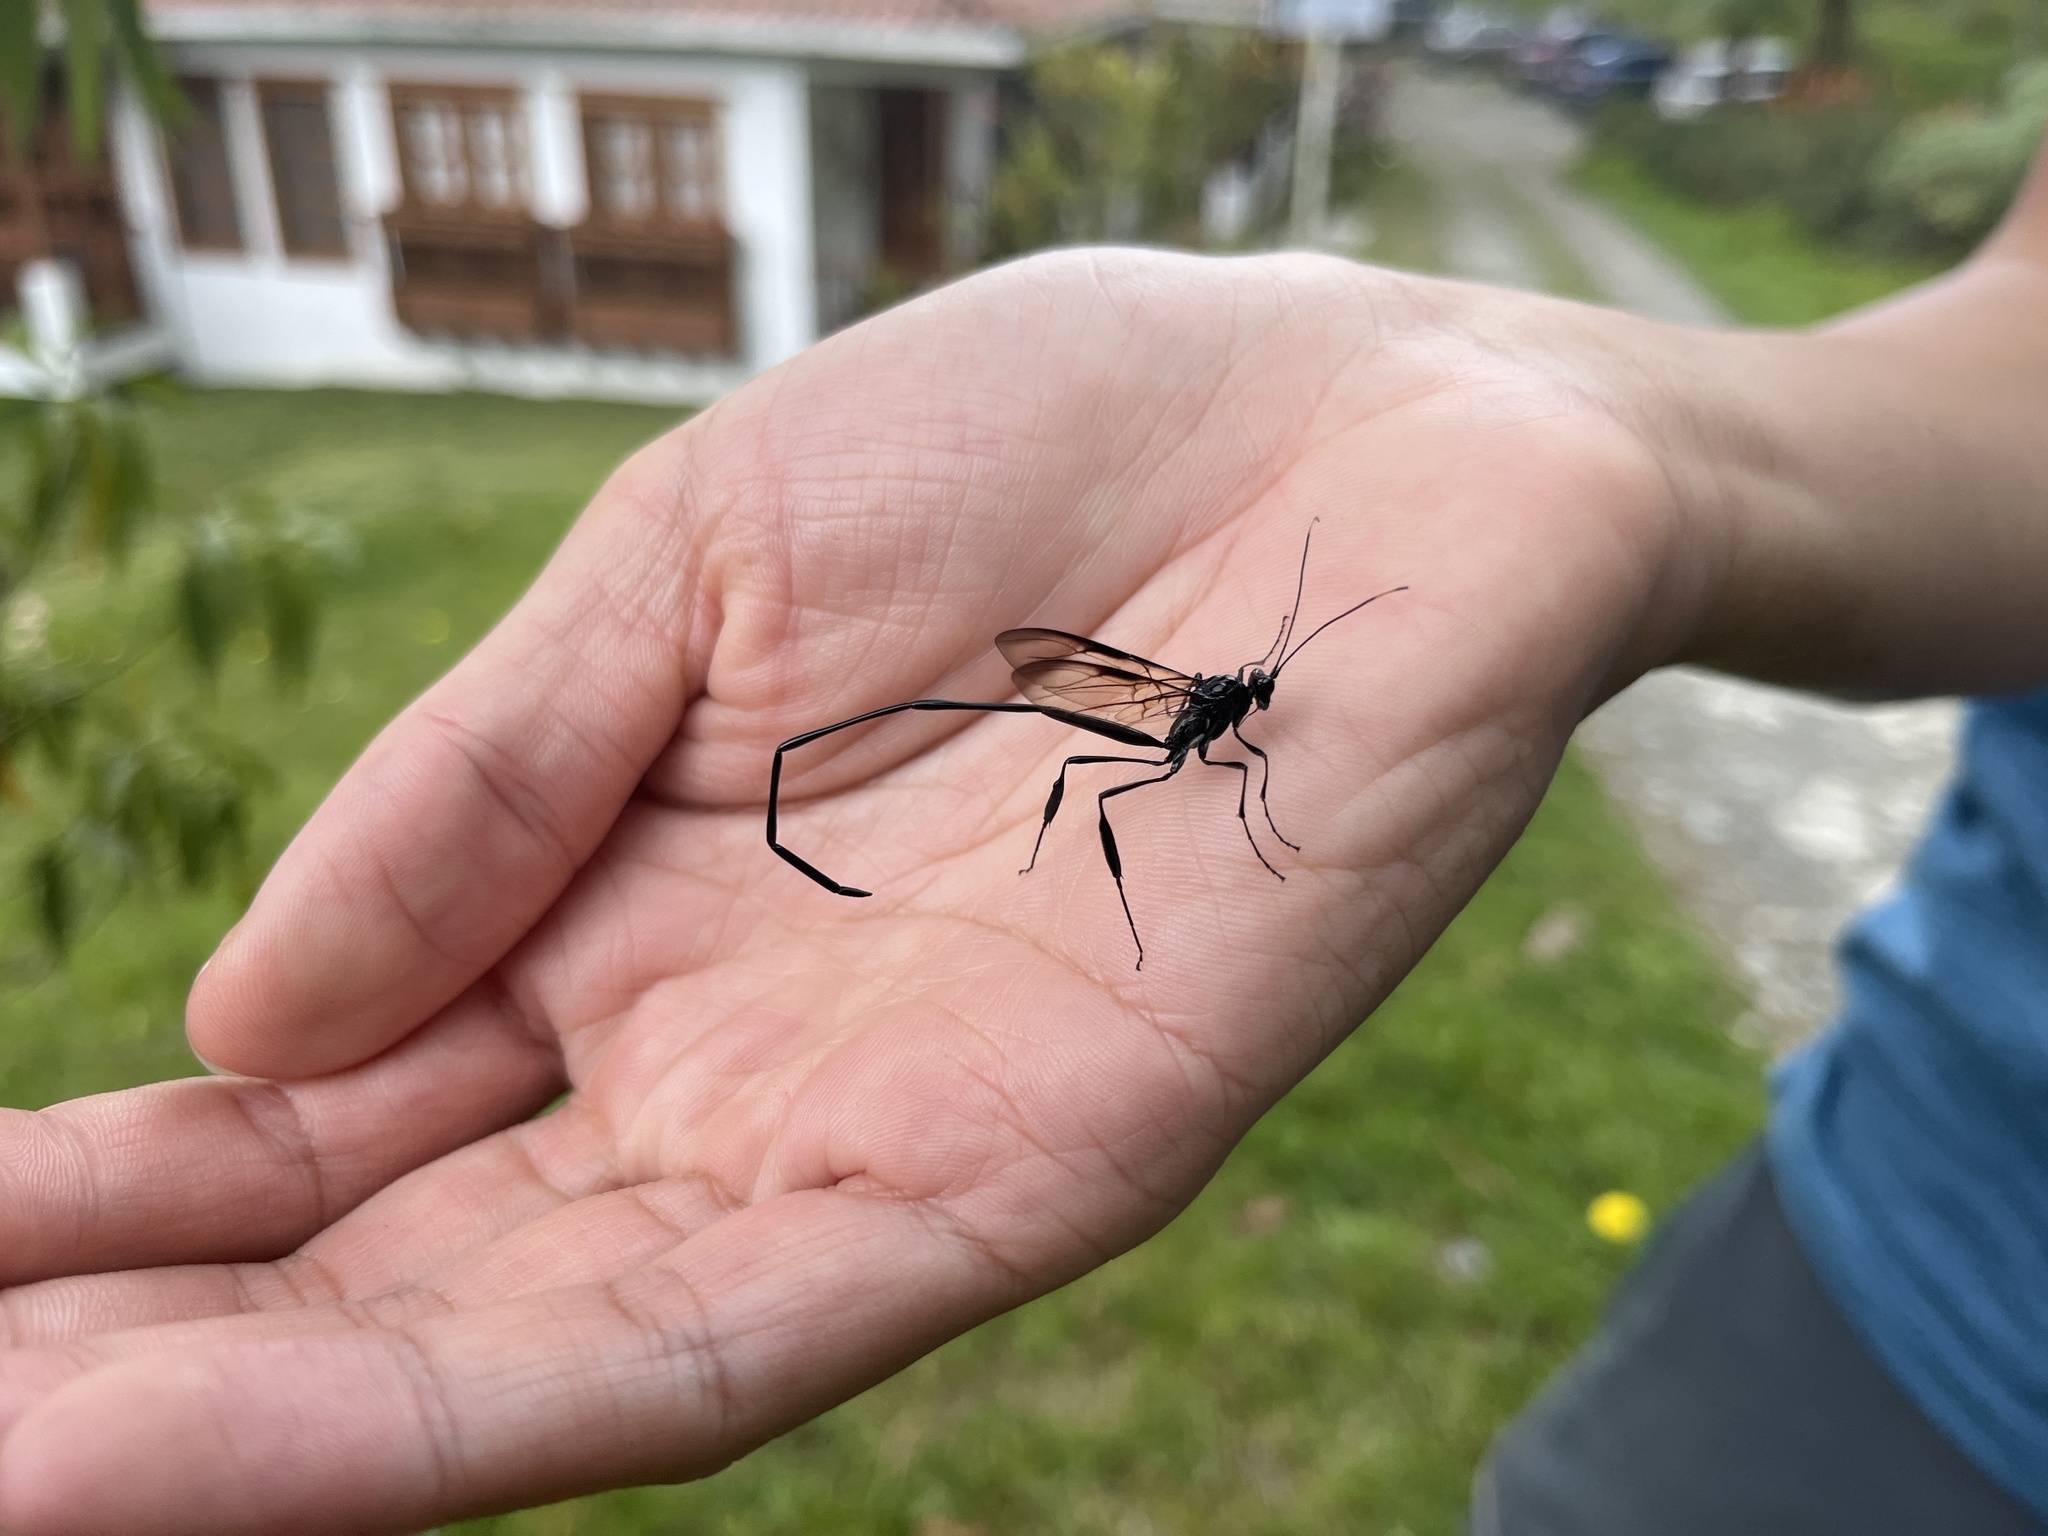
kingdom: Animalia
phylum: Arthropoda
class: Insecta
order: Hymenoptera
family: Pelecinidae
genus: Pelecinus
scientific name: Pelecinus polyturator
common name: American pelecinid wasp
